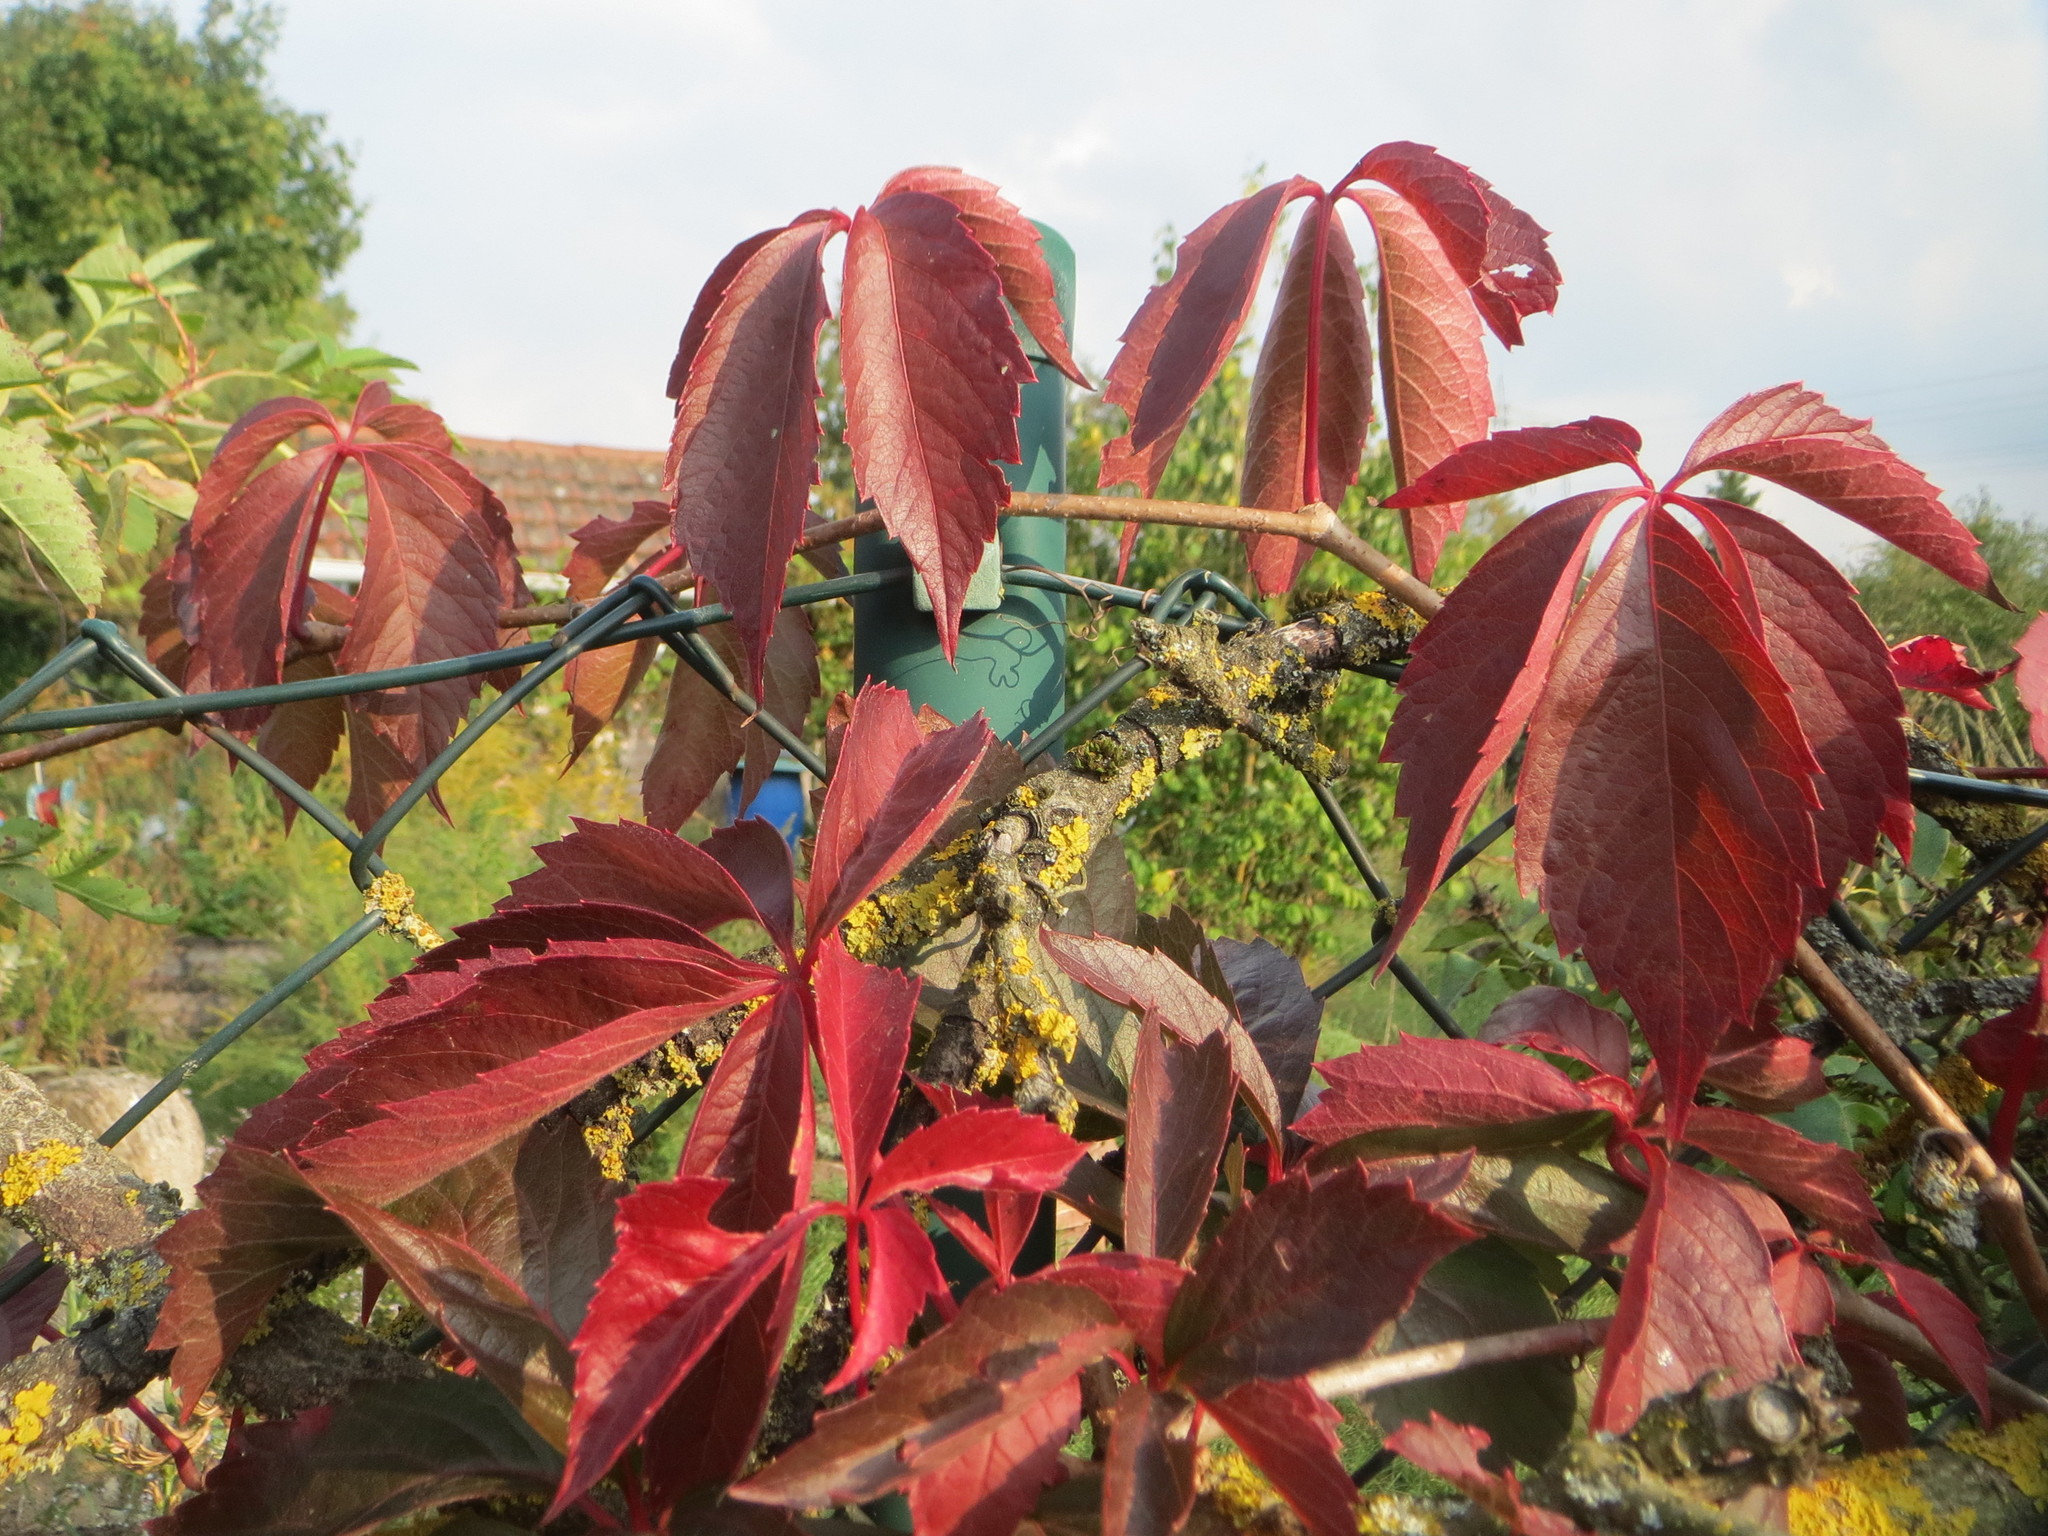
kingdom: Plantae
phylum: Tracheophyta
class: Magnoliopsida
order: Vitales
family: Vitaceae
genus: Parthenocissus
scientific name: Parthenocissus quinquefolia
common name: Virginia-creeper
